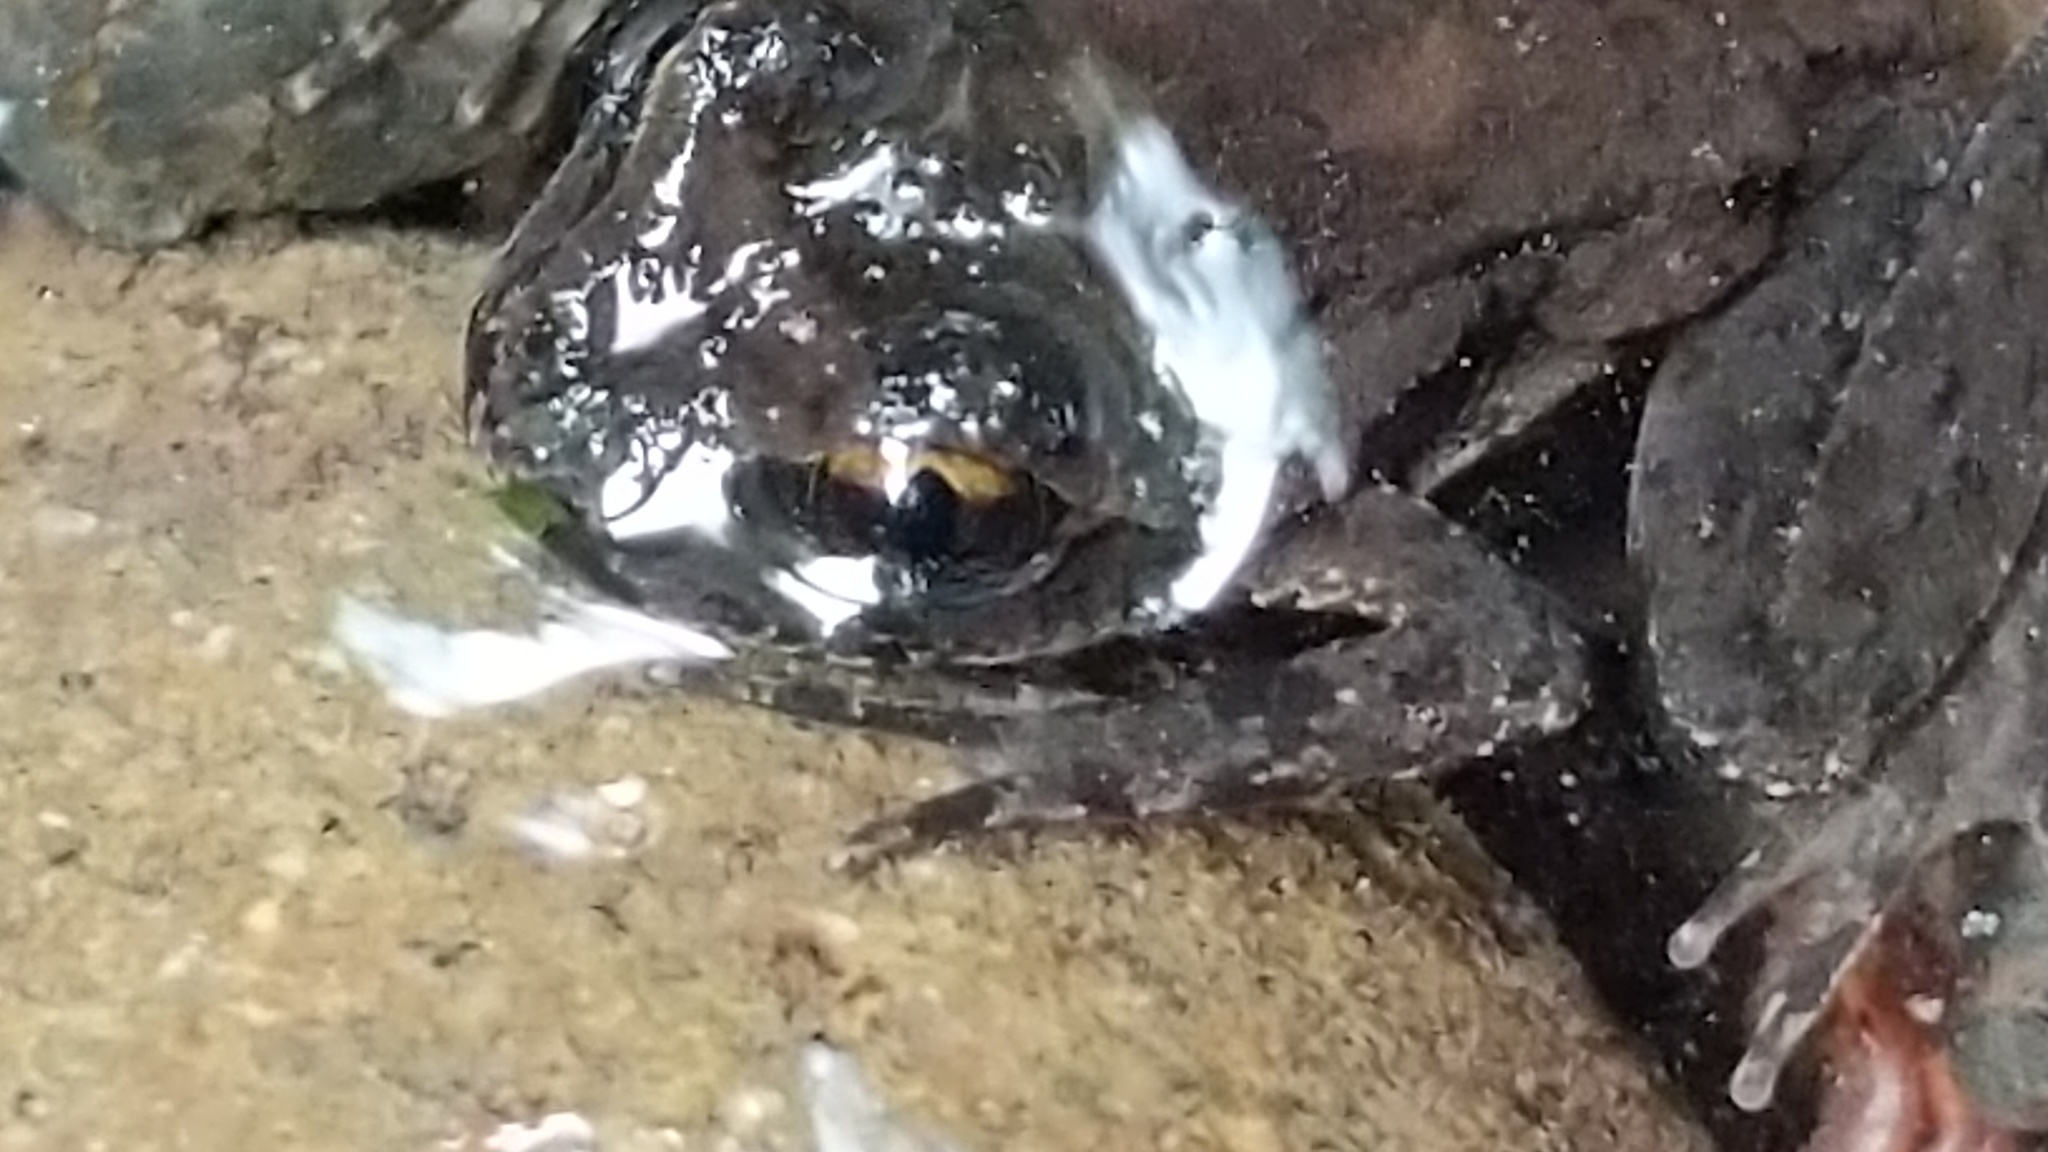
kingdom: Animalia
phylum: Chordata
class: Amphibia
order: Anura
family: Ascaphidae
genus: Ascaphus
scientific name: Ascaphus truei
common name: Tailed frog
